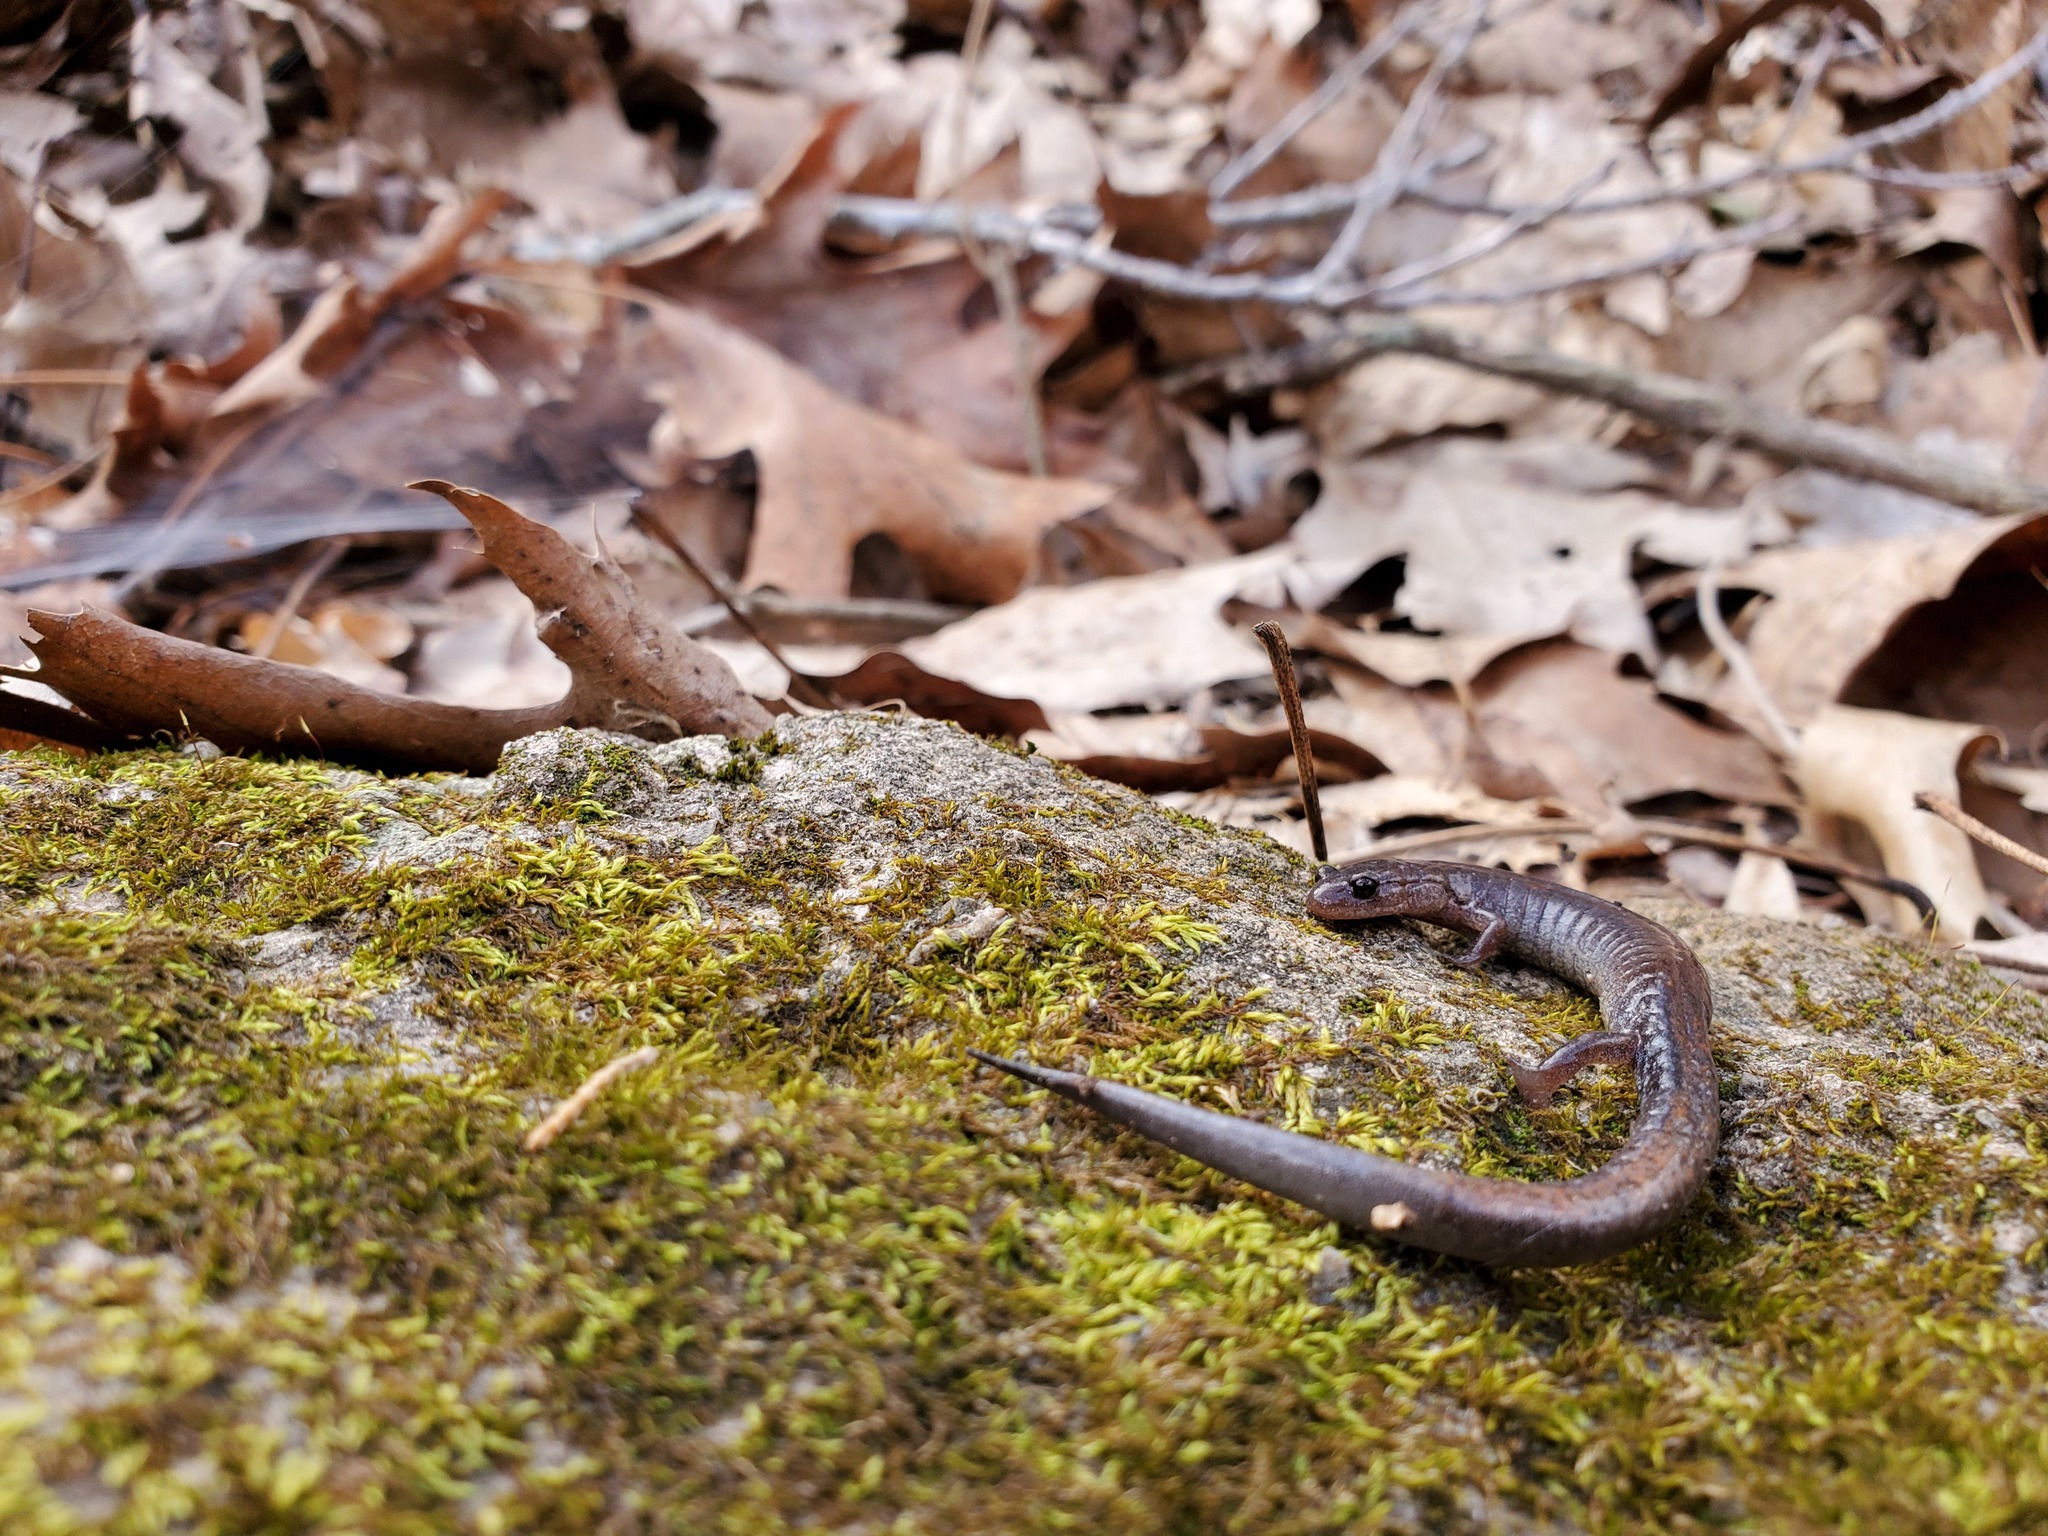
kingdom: Animalia
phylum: Chordata
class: Amphibia
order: Caudata
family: Plethodontidae
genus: Plethodon
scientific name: Plethodon dorsalis
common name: Northern zigzag salamander
